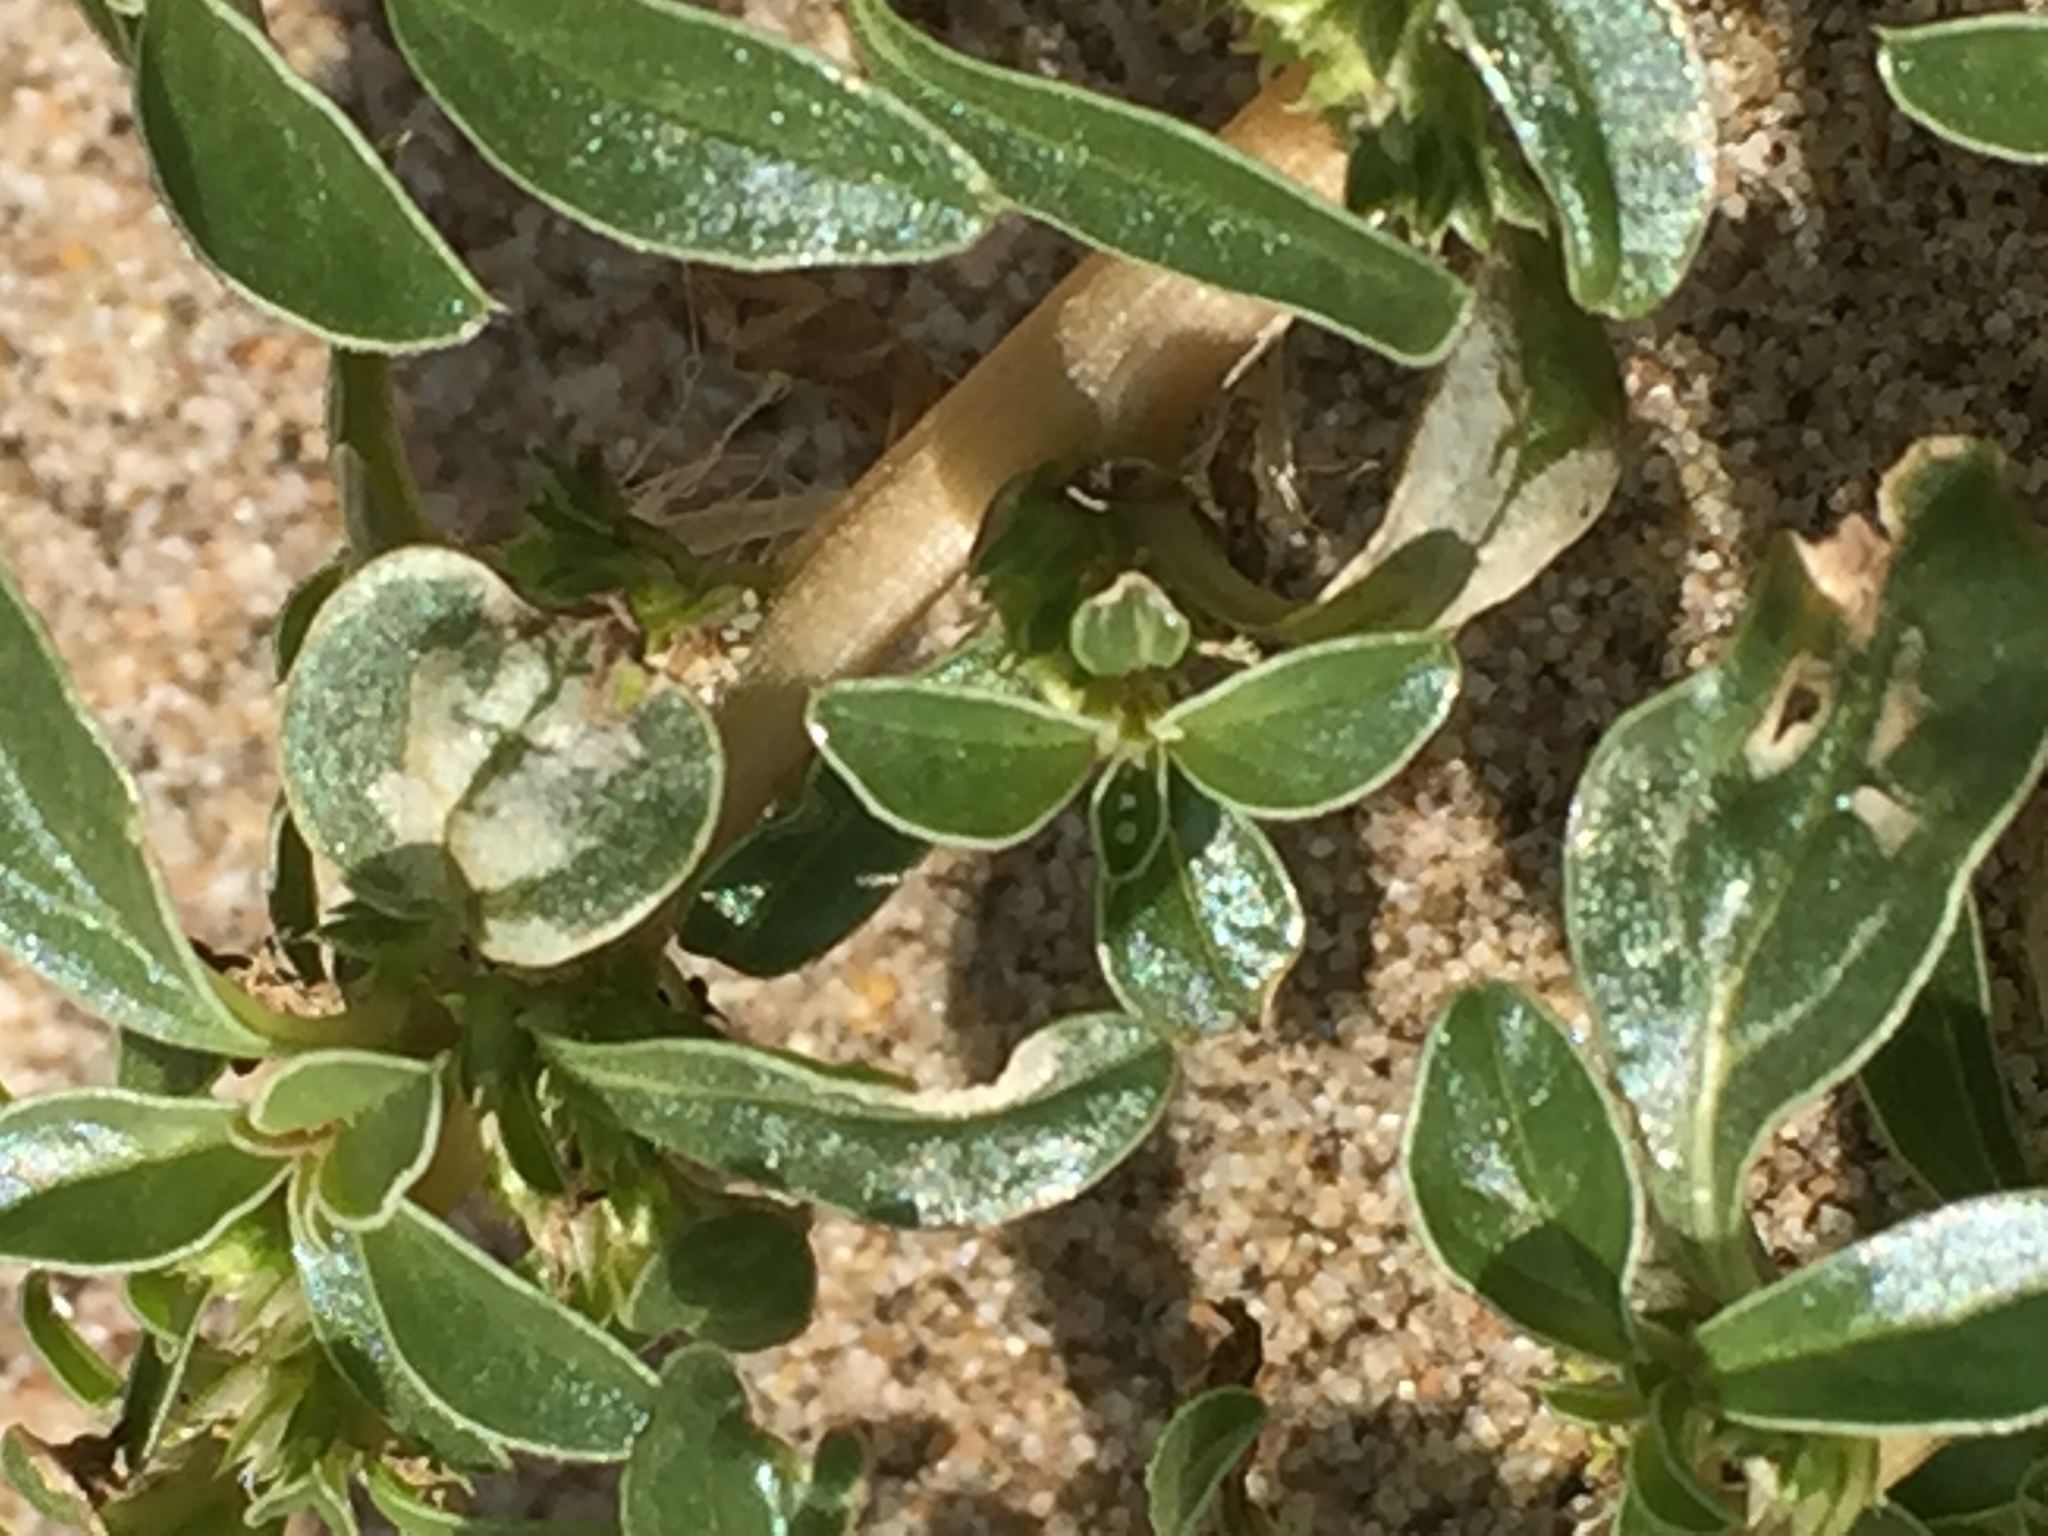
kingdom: Plantae
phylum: Tracheophyta
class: Magnoliopsida
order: Caryophyllales
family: Amaranthaceae
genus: Amaranthus
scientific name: Amaranthus blitoides
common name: Prostrate pigweed
